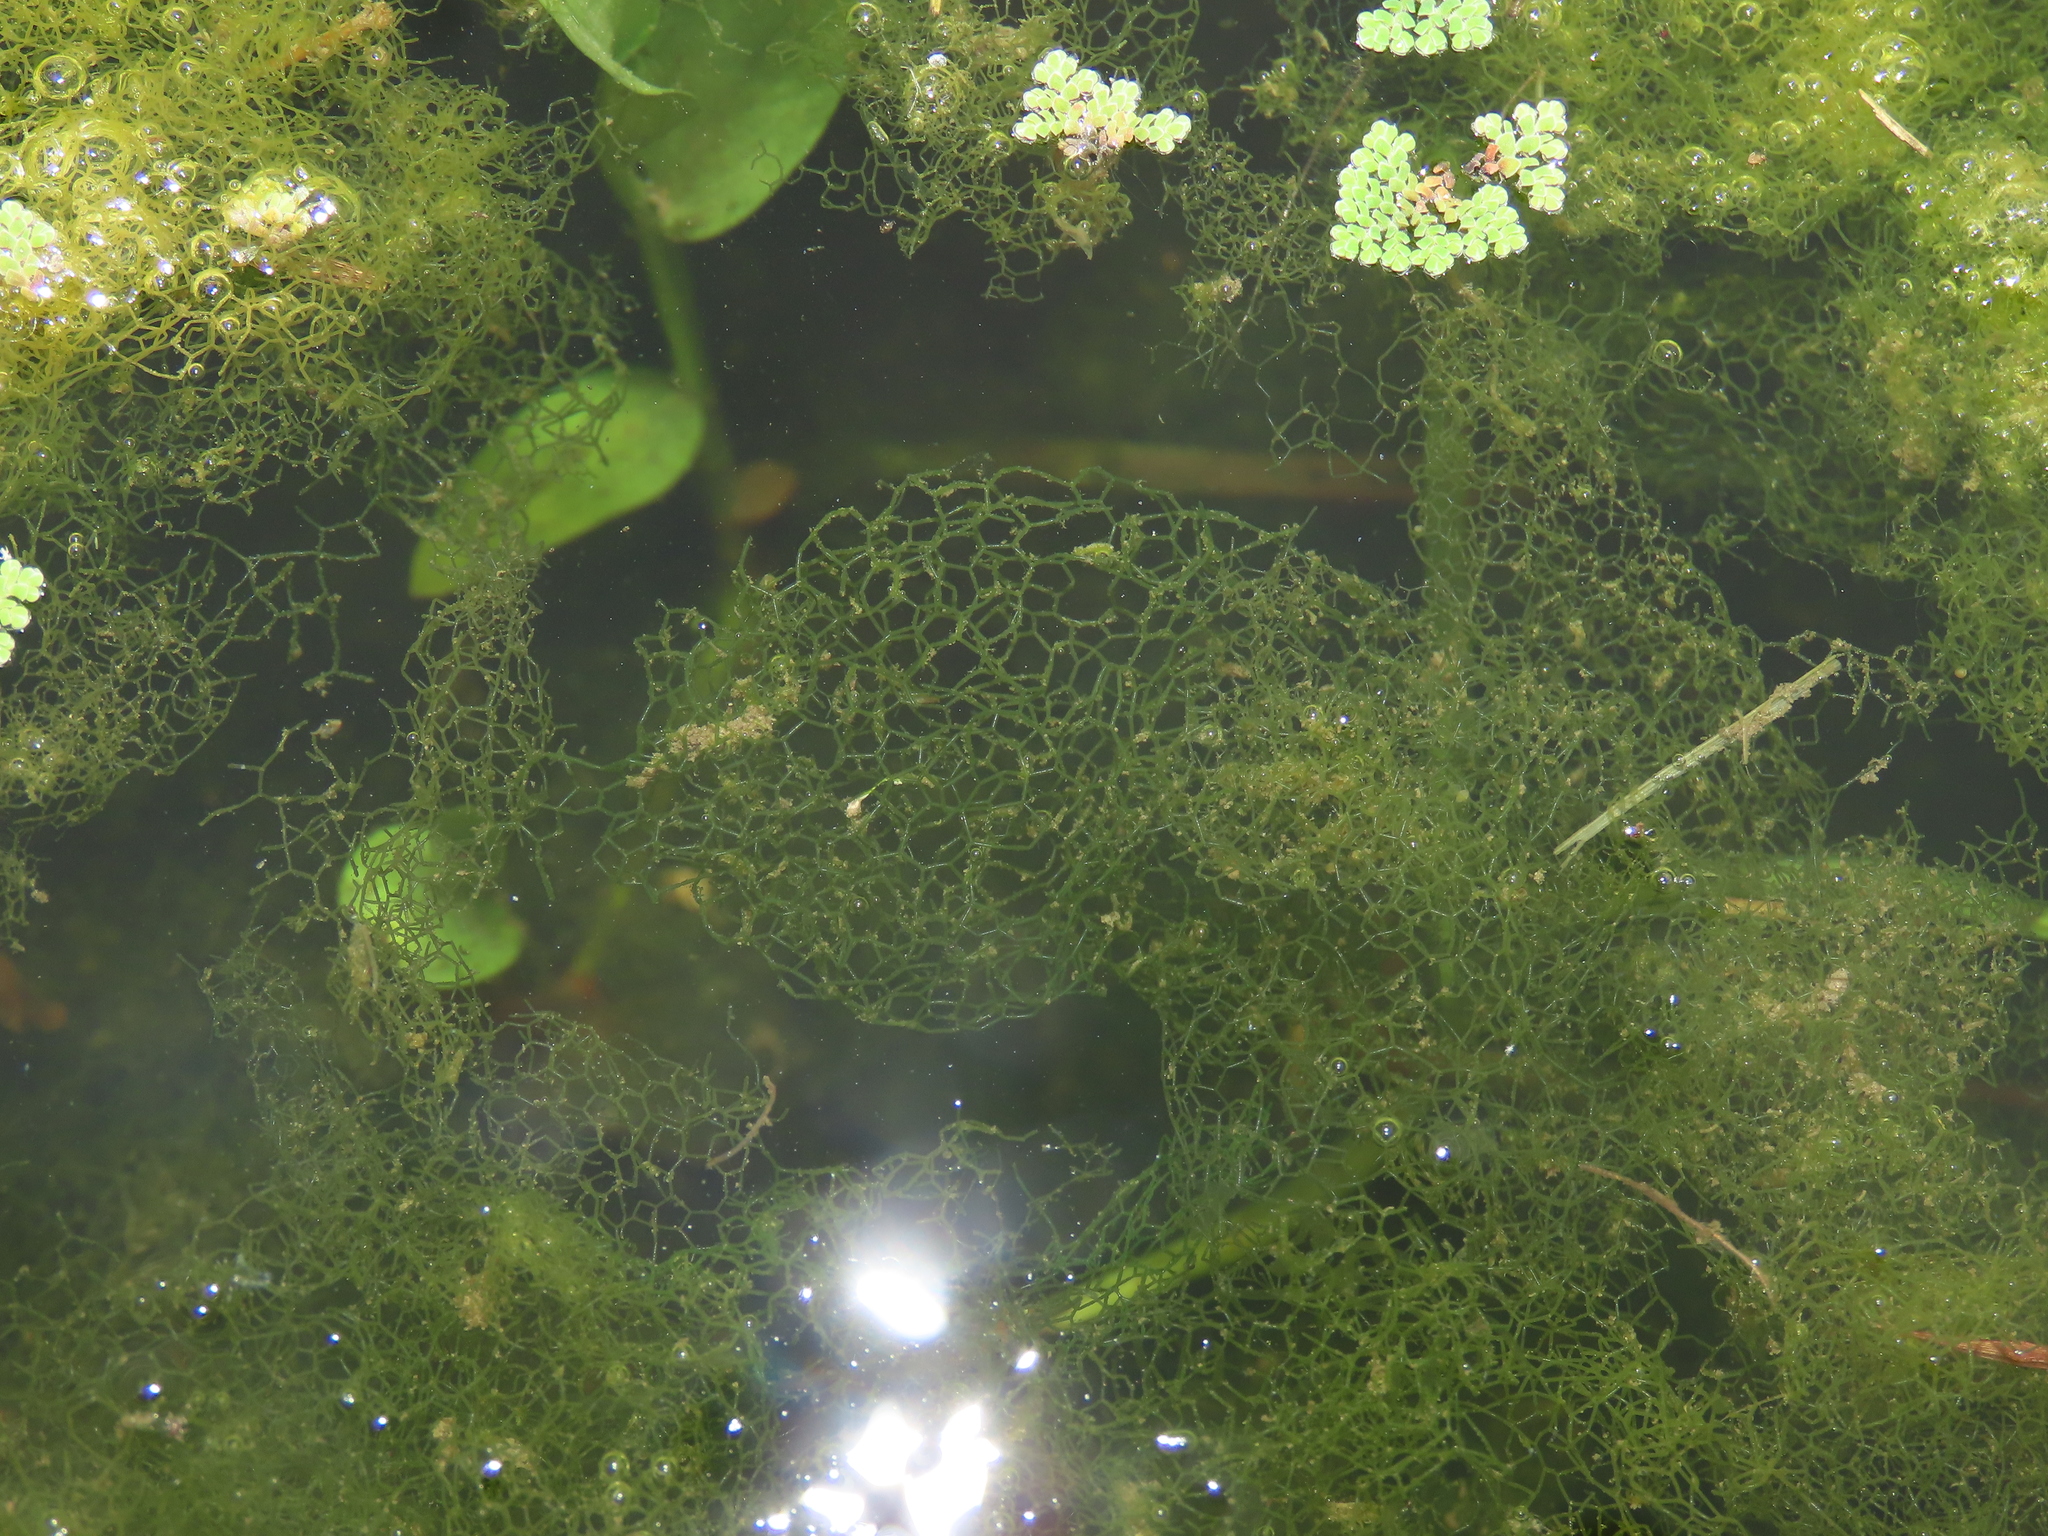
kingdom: Plantae
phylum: Chlorophyta
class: Chlorophyceae
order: Sphaeropleales
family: Hydrodictyaceae
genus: Hydrodictyon
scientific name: Hydrodictyon reticulatum
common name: Water net
